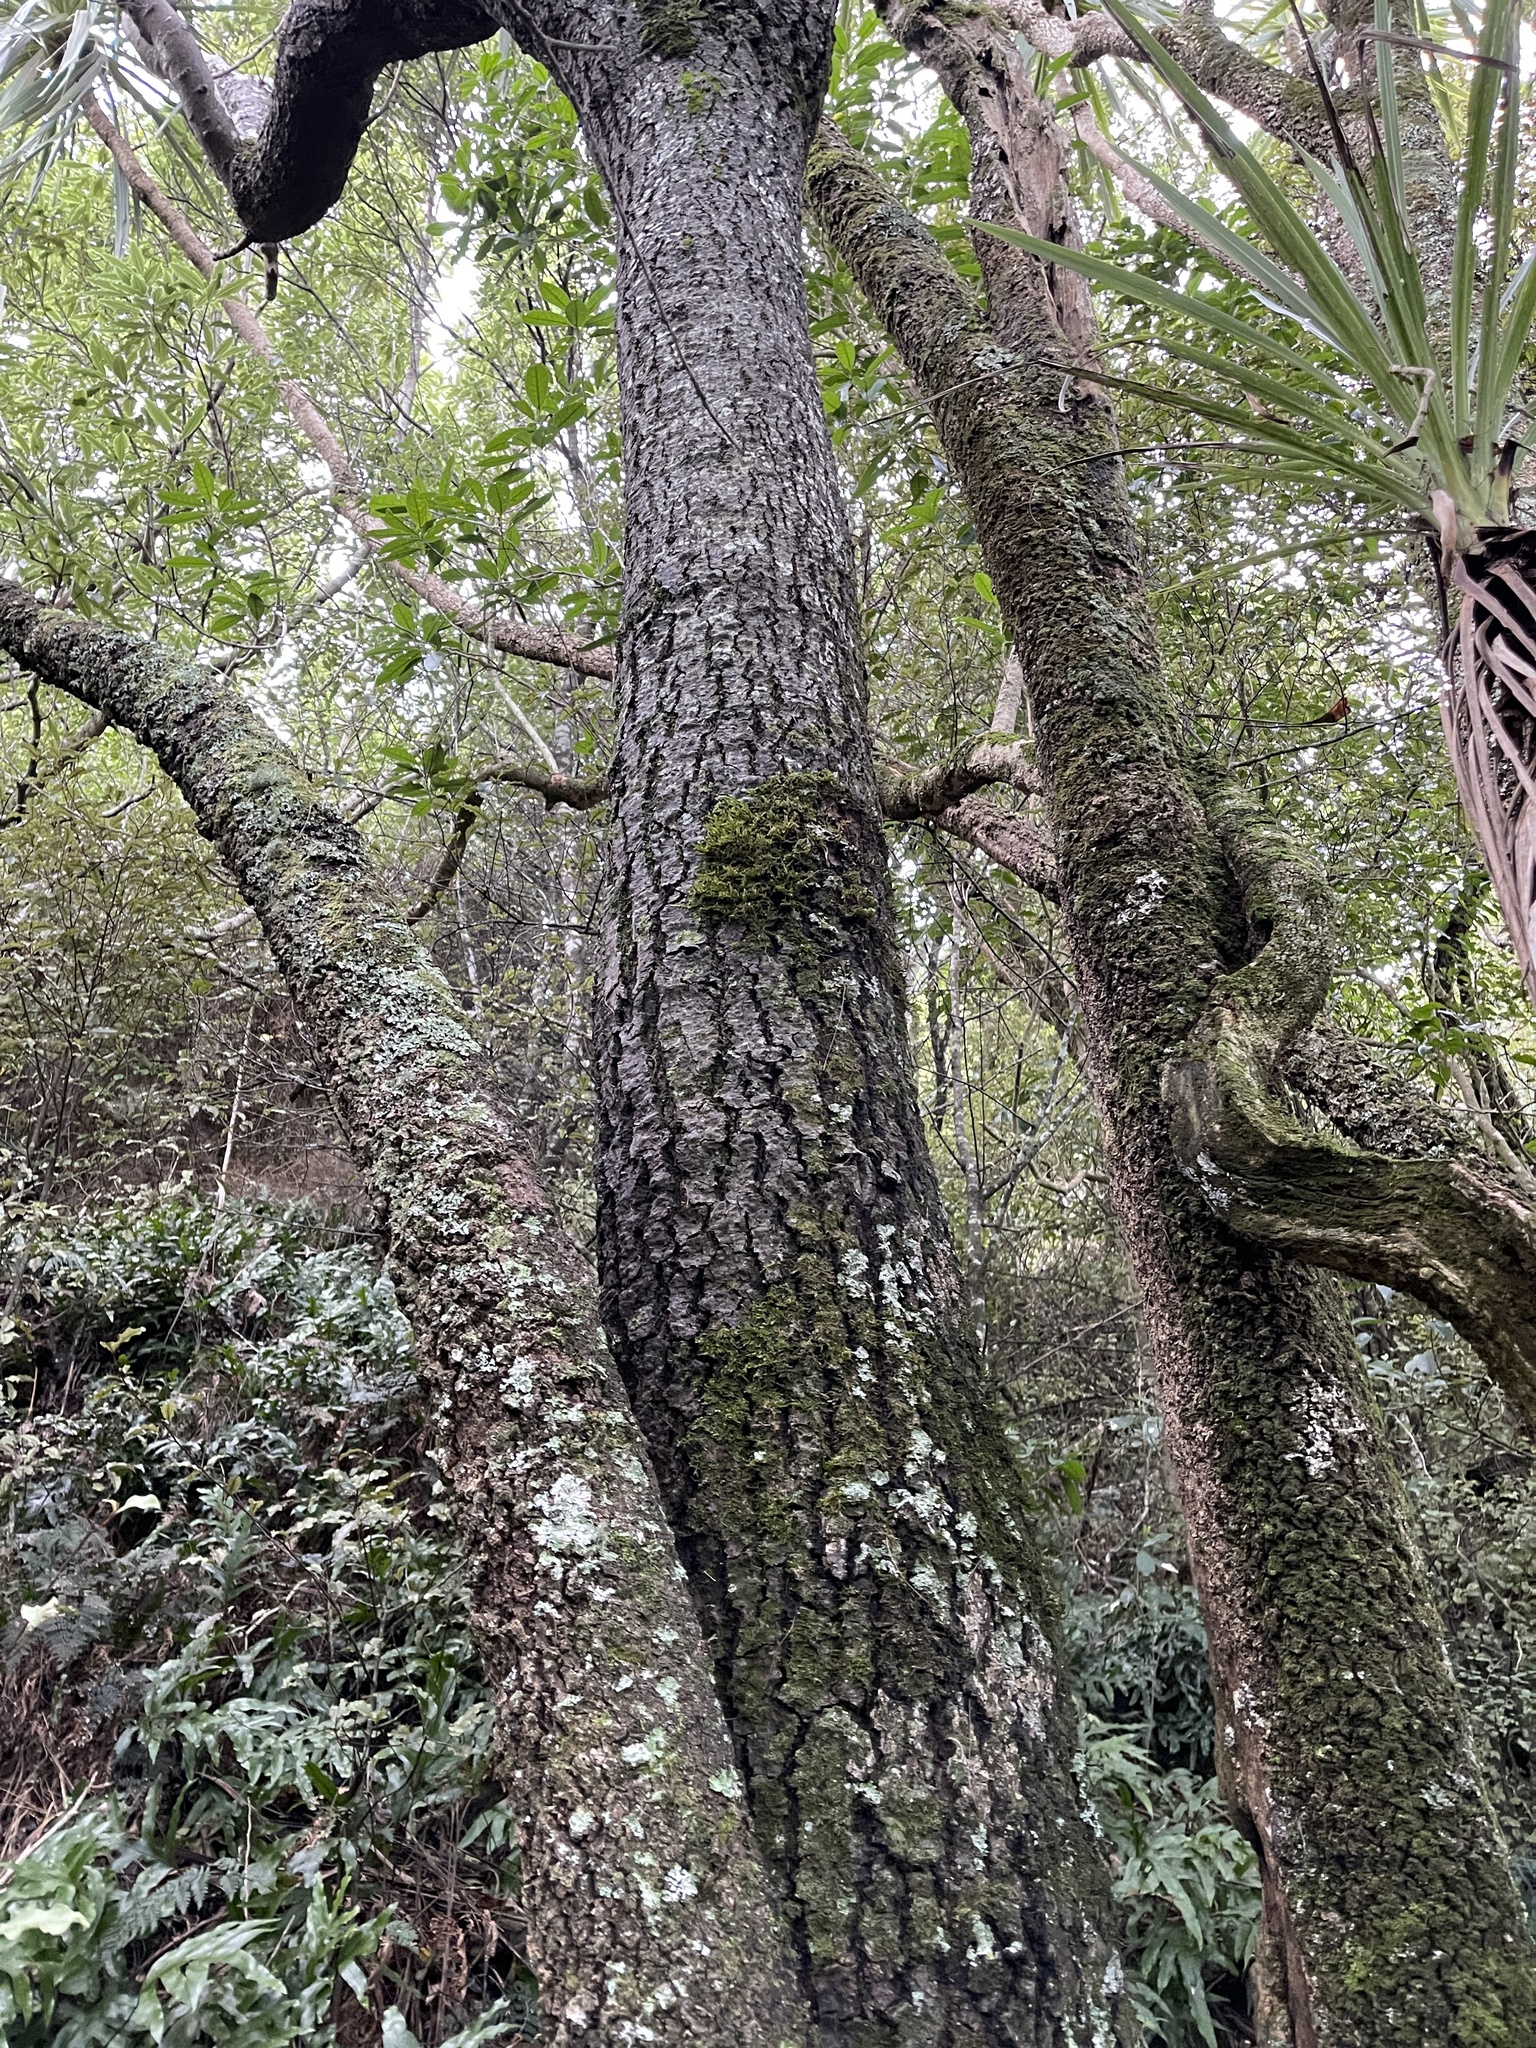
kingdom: Plantae
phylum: Tracheophyta
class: Liliopsida
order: Asparagales
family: Asparagaceae
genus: Cordyline
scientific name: Cordyline australis
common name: Cabbage-palm
